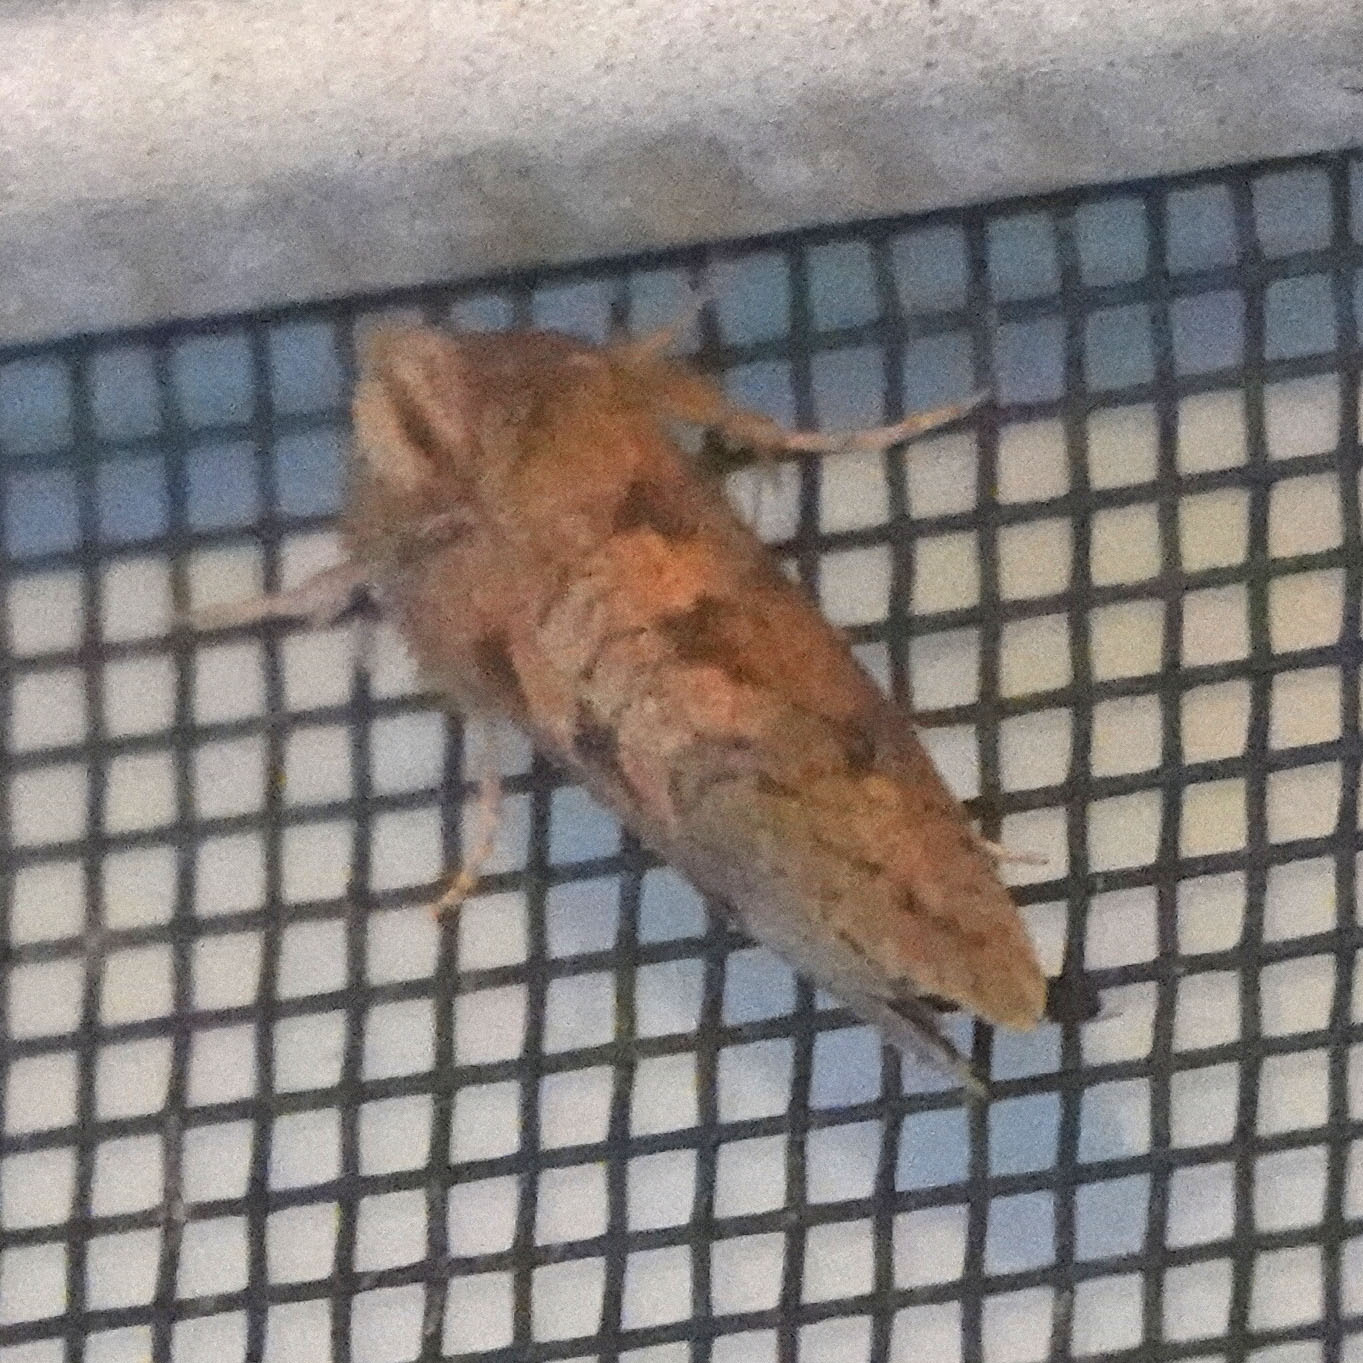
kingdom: Animalia
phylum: Arthropoda
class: Insecta
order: Lepidoptera
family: Tineidae
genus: Acrolophus
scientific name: Acrolophus plumifrontella
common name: Eastern grass tubeworm moth
